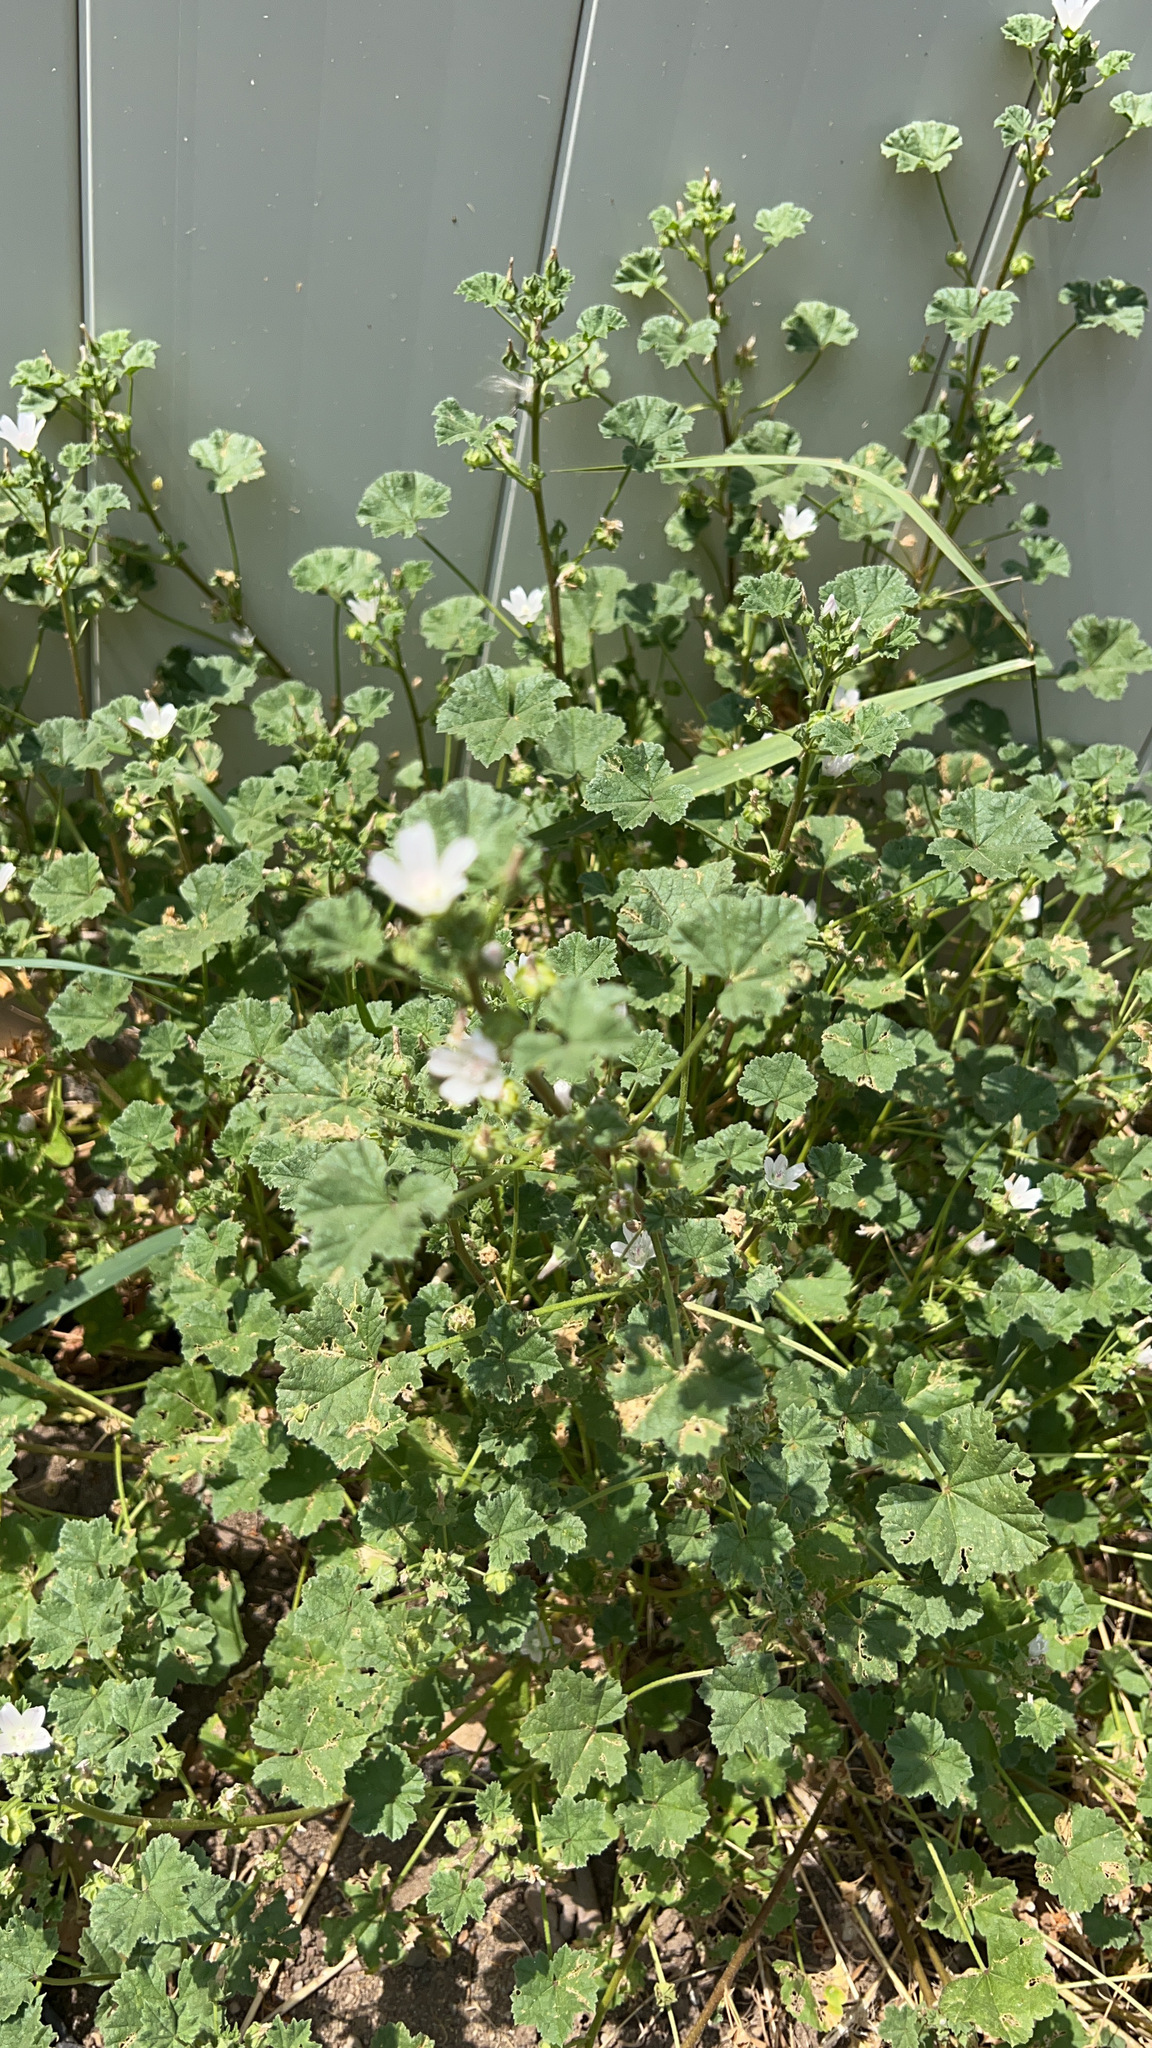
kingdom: Plantae
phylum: Tracheophyta
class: Magnoliopsida
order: Malvales
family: Malvaceae
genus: Malva
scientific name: Malva neglecta
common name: Common mallow
